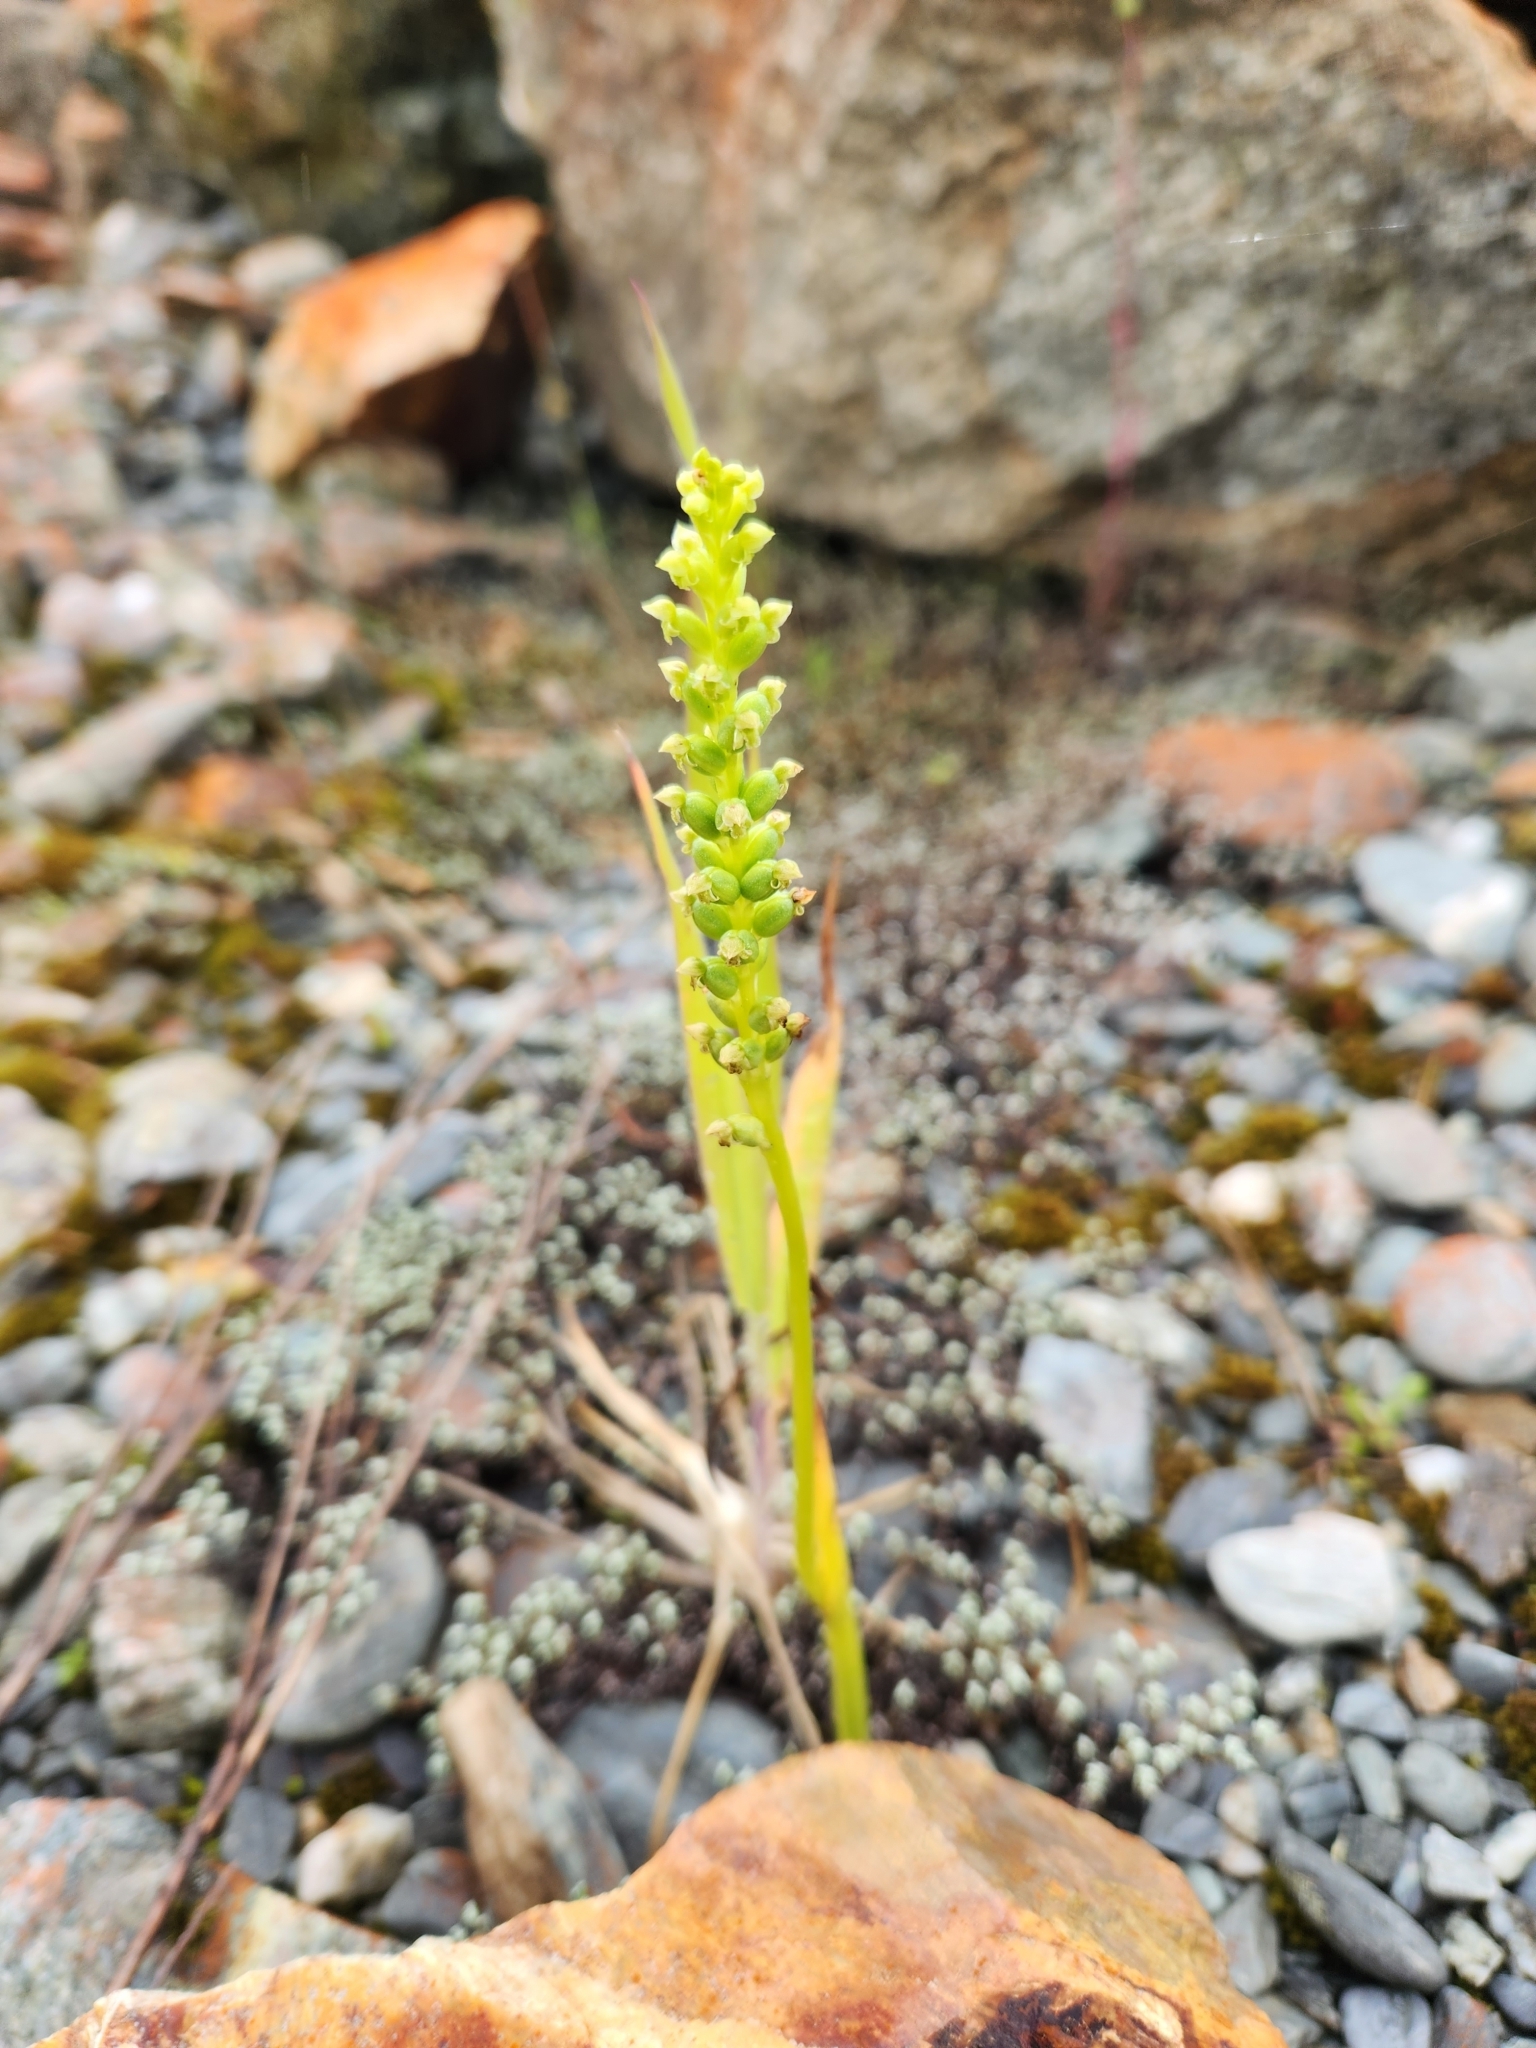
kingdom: Plantae
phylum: Tracheophyta
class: Liliopsida
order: Asparagales
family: Orchidaceae
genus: Microtis
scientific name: Microtis unifolia
